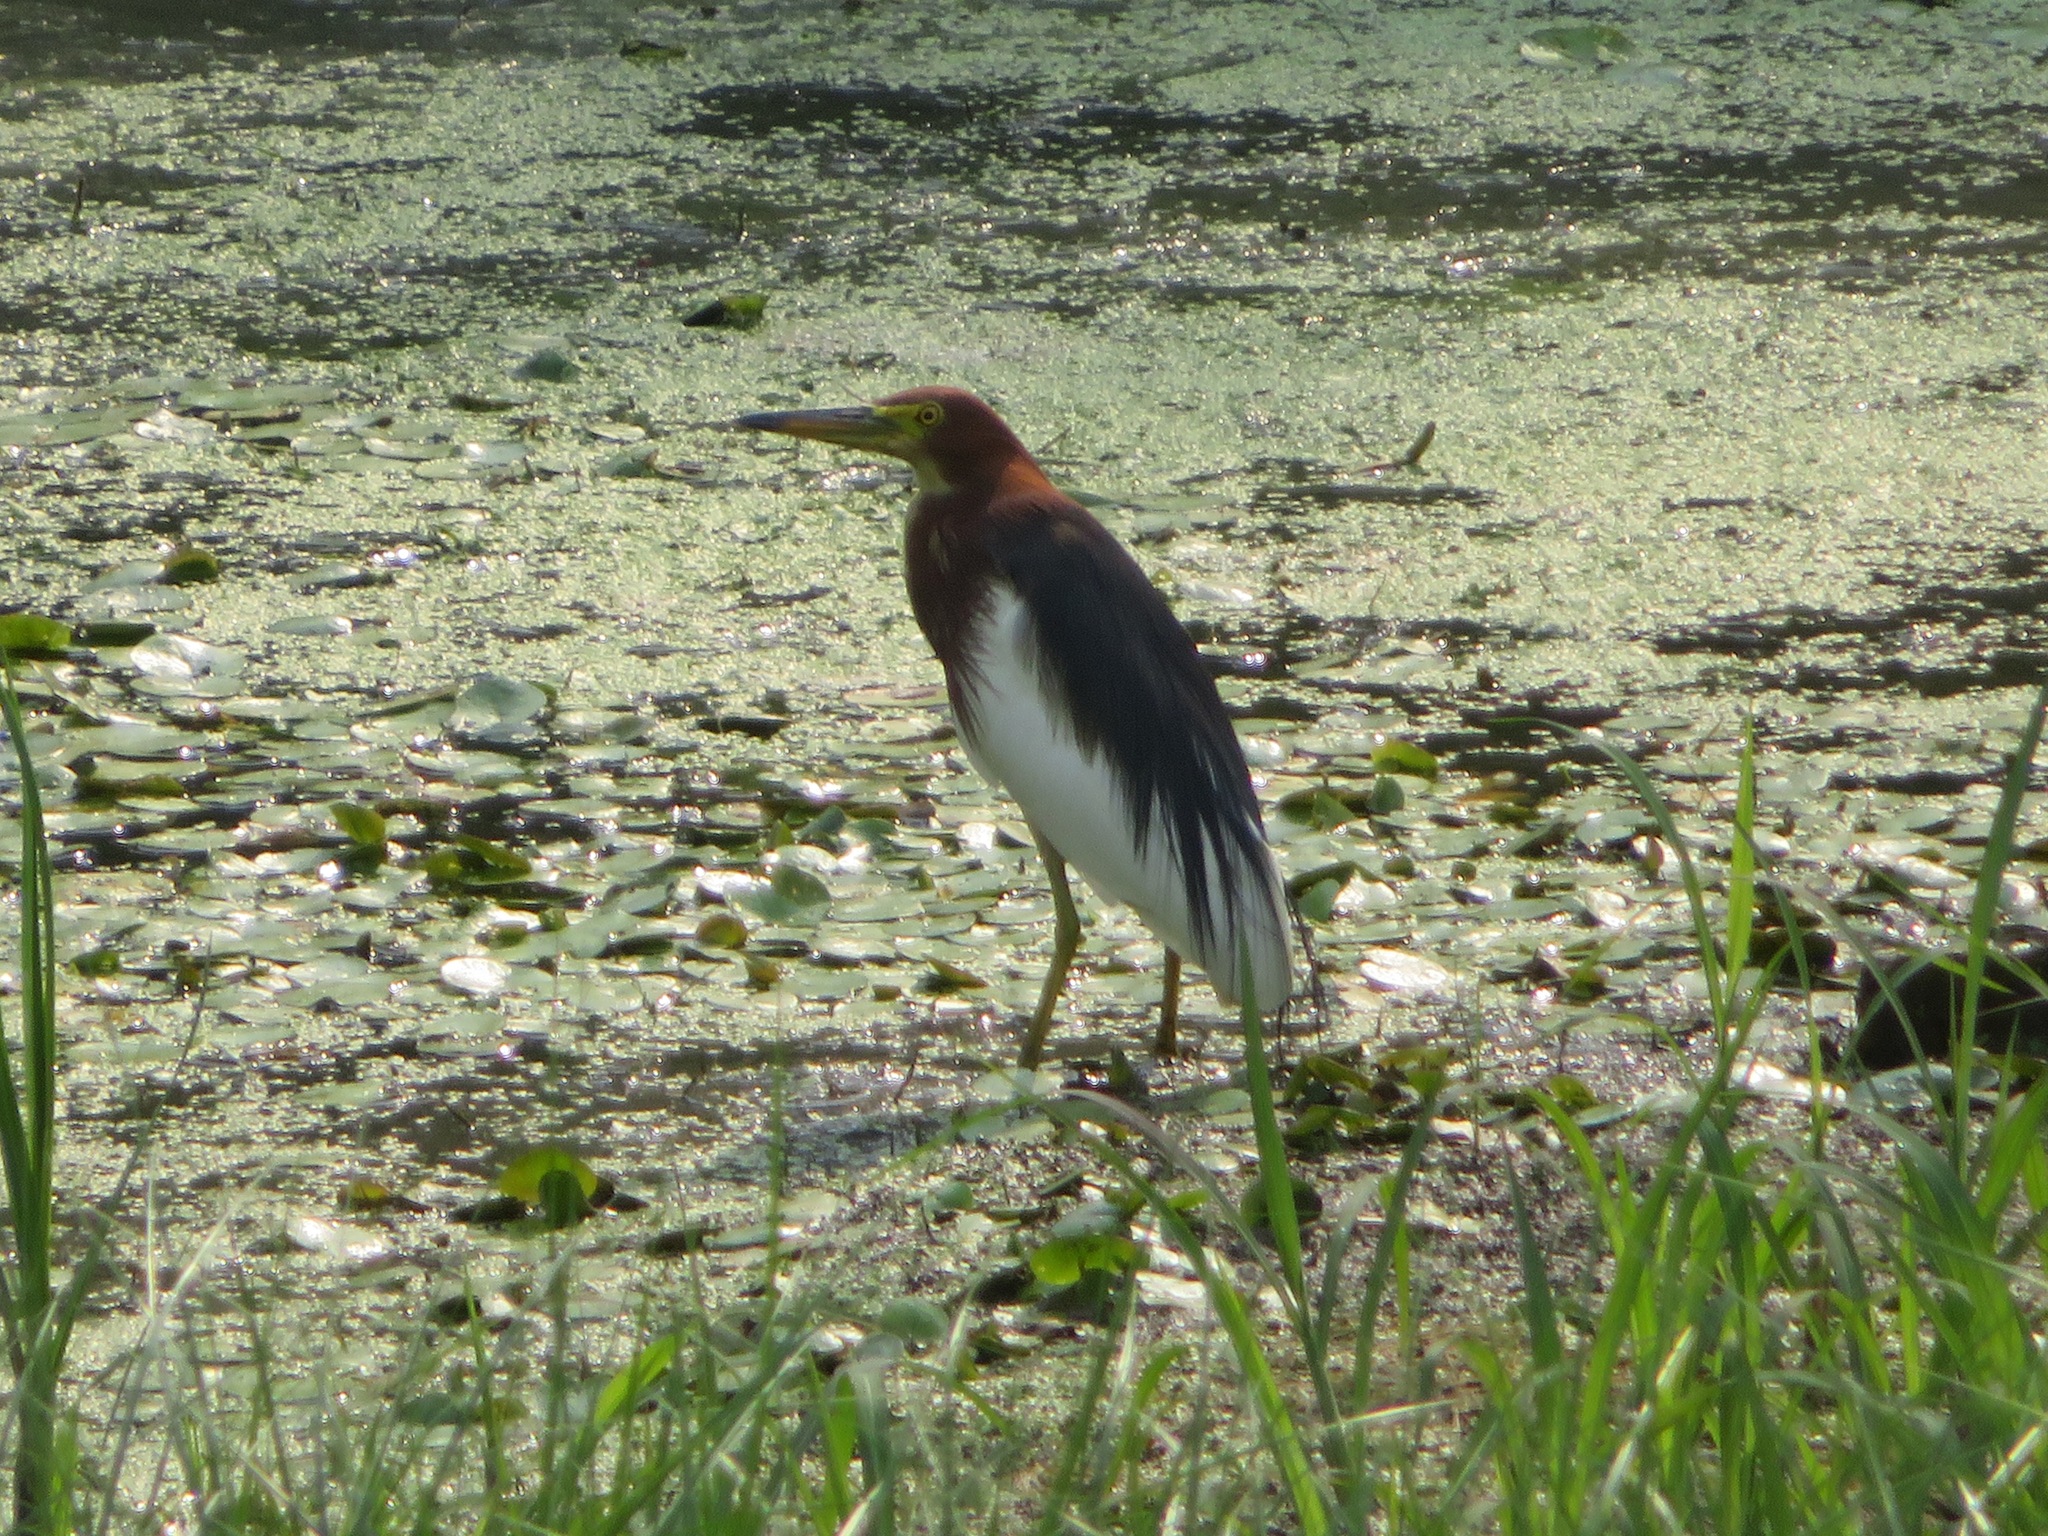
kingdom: Animalia
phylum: Chordata
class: Aves
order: Pelecaniformes
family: Ardeidae
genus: Ardeola
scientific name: Ardeola bacchus
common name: Chinese pond heron
